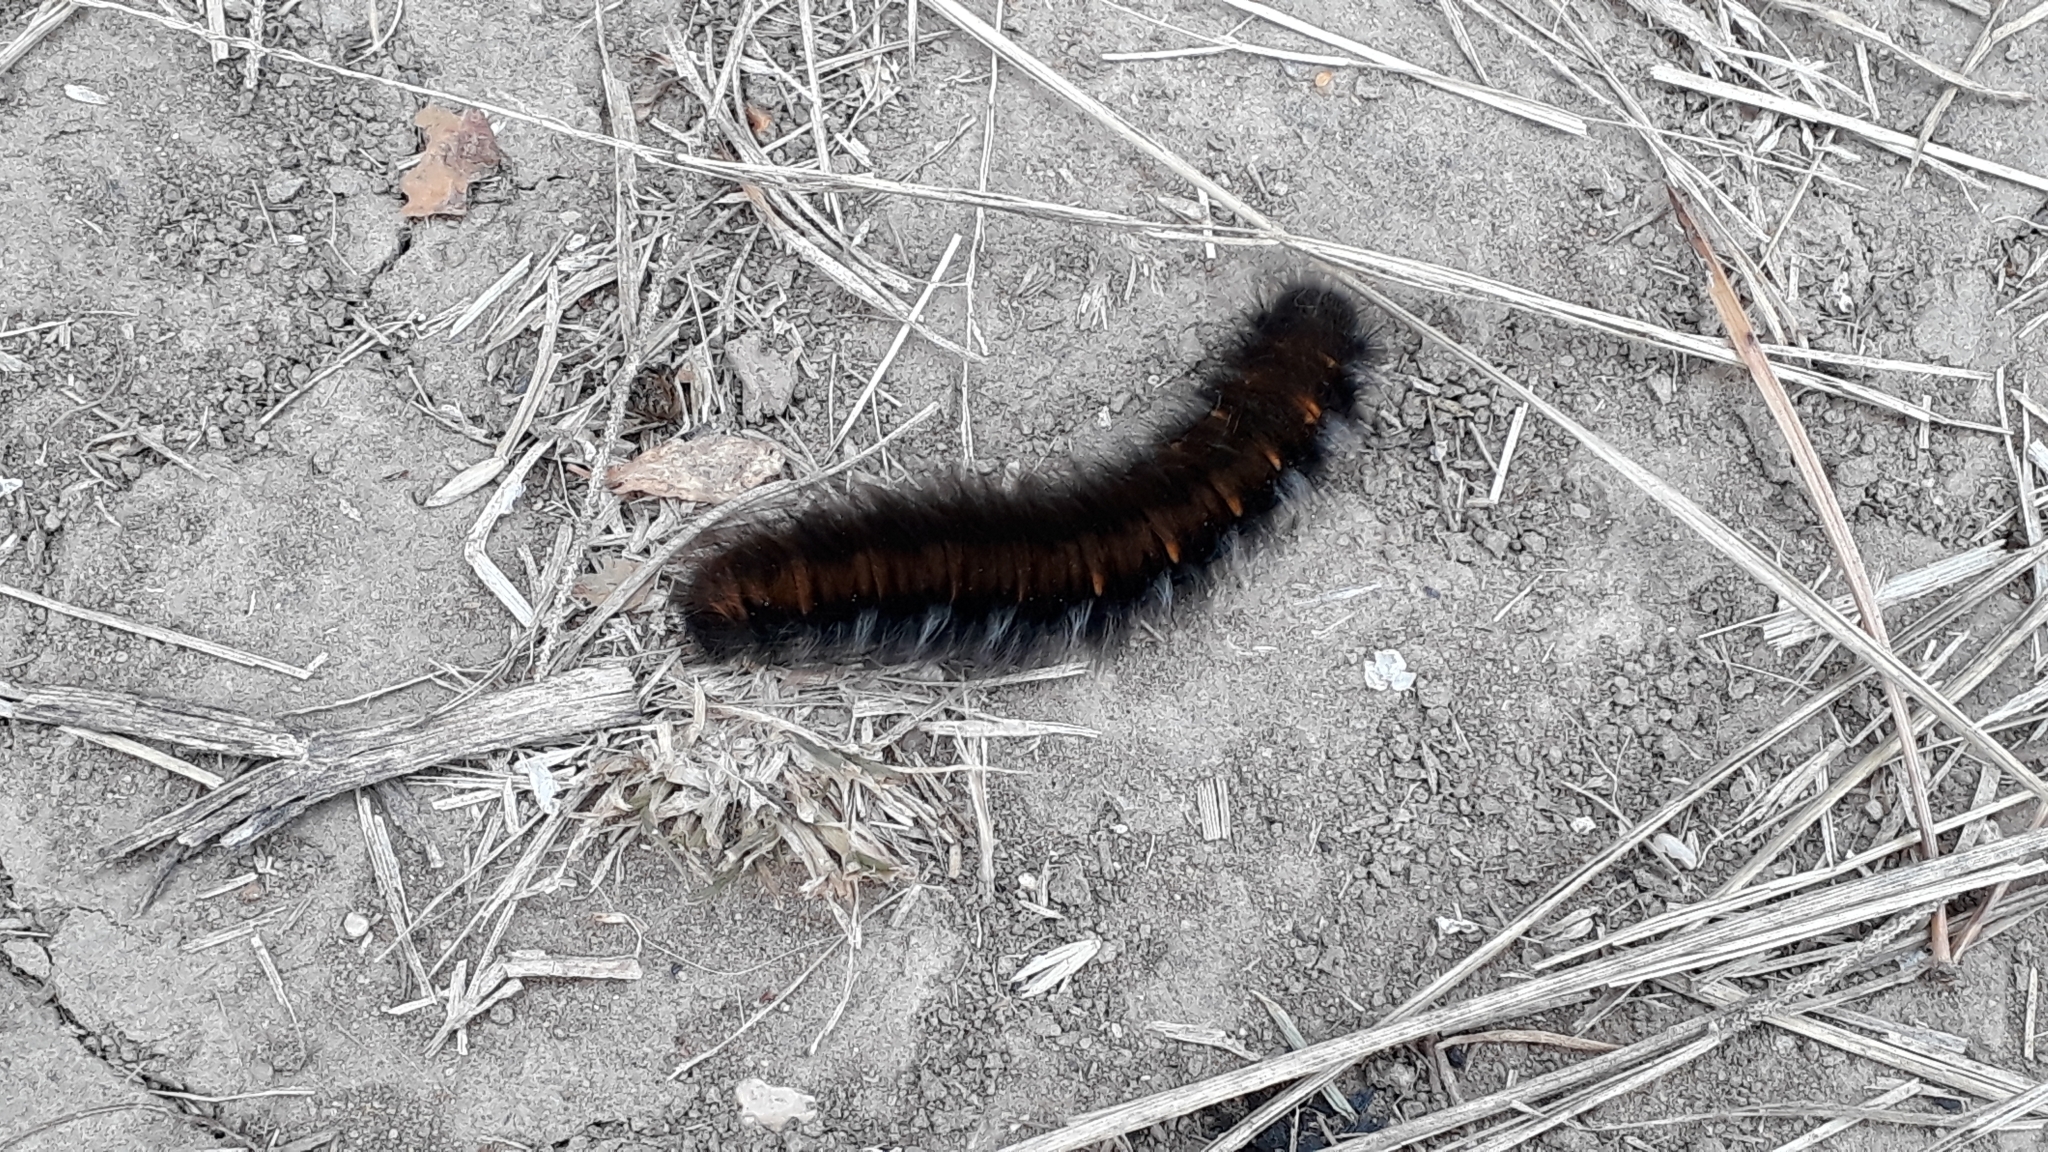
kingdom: Animalia
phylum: Arthropoda
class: Insecta
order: Lepidoptera
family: Lasiocampidae
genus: Macrothylacia
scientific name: Macrothylacia rubi
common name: Fox moth
